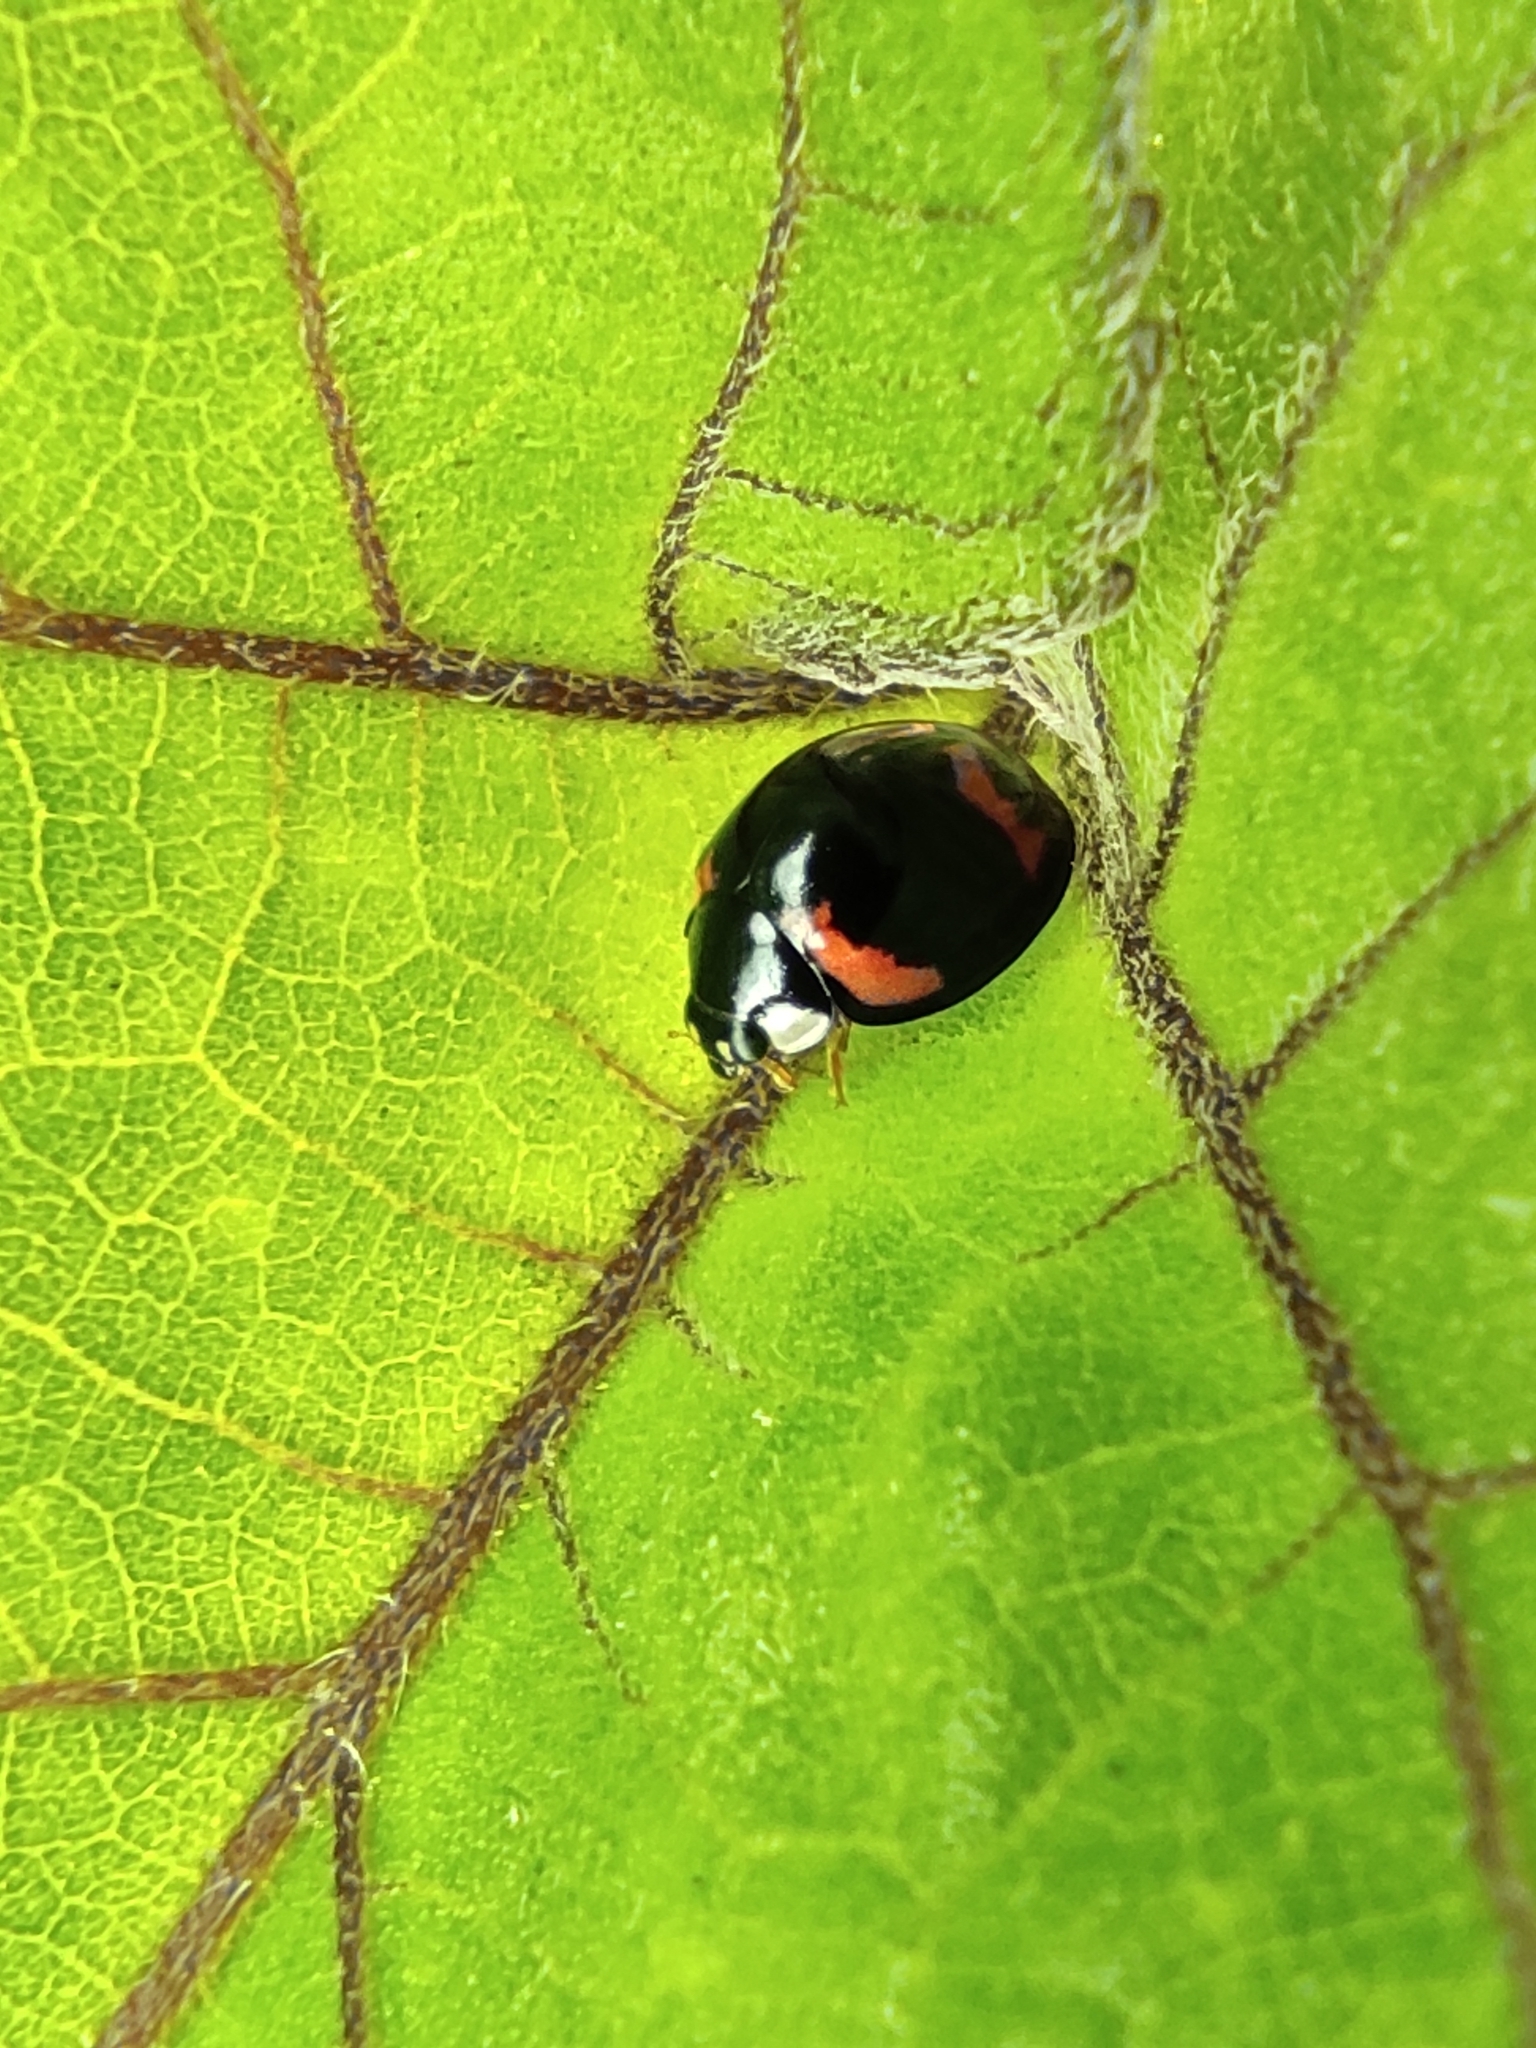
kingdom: Animalia
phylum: Arthropoda
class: Insecta
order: Coleoptera
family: Coccinellidae
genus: Cheilomenes
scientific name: Cheilomenes sexmaculata
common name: Ladybird beetle
